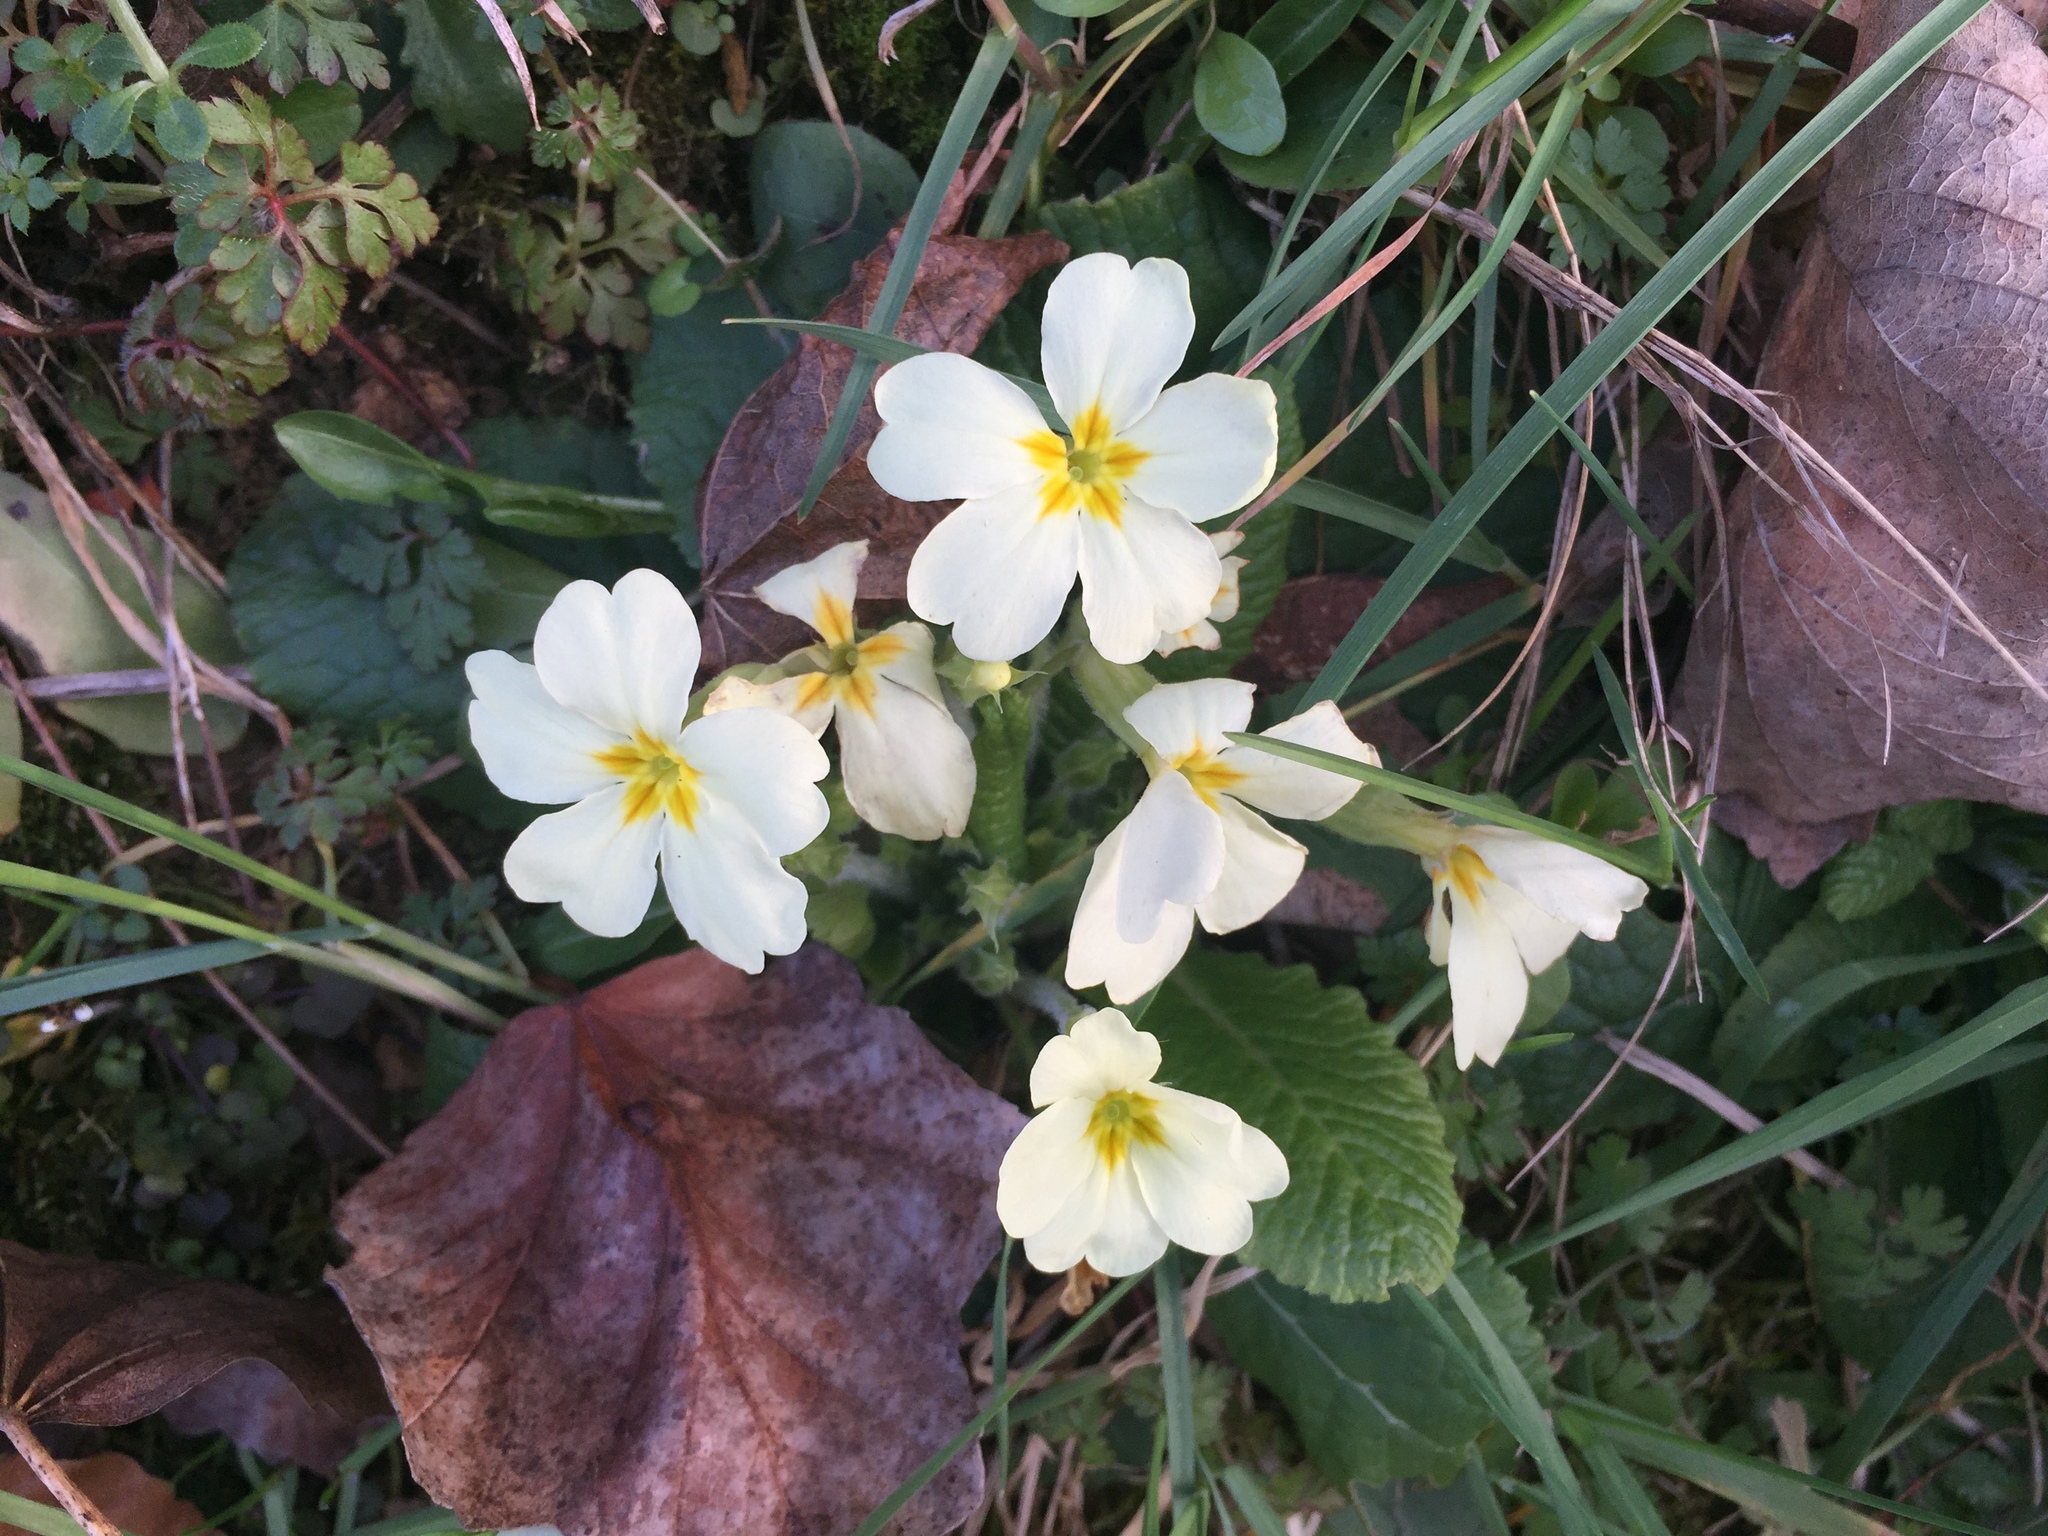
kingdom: Plantae
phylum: Tracheophyta
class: Magnoliopsida
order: Ericales
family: Primulaceae
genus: Primula
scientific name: Primula vulgaris
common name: Primrose
